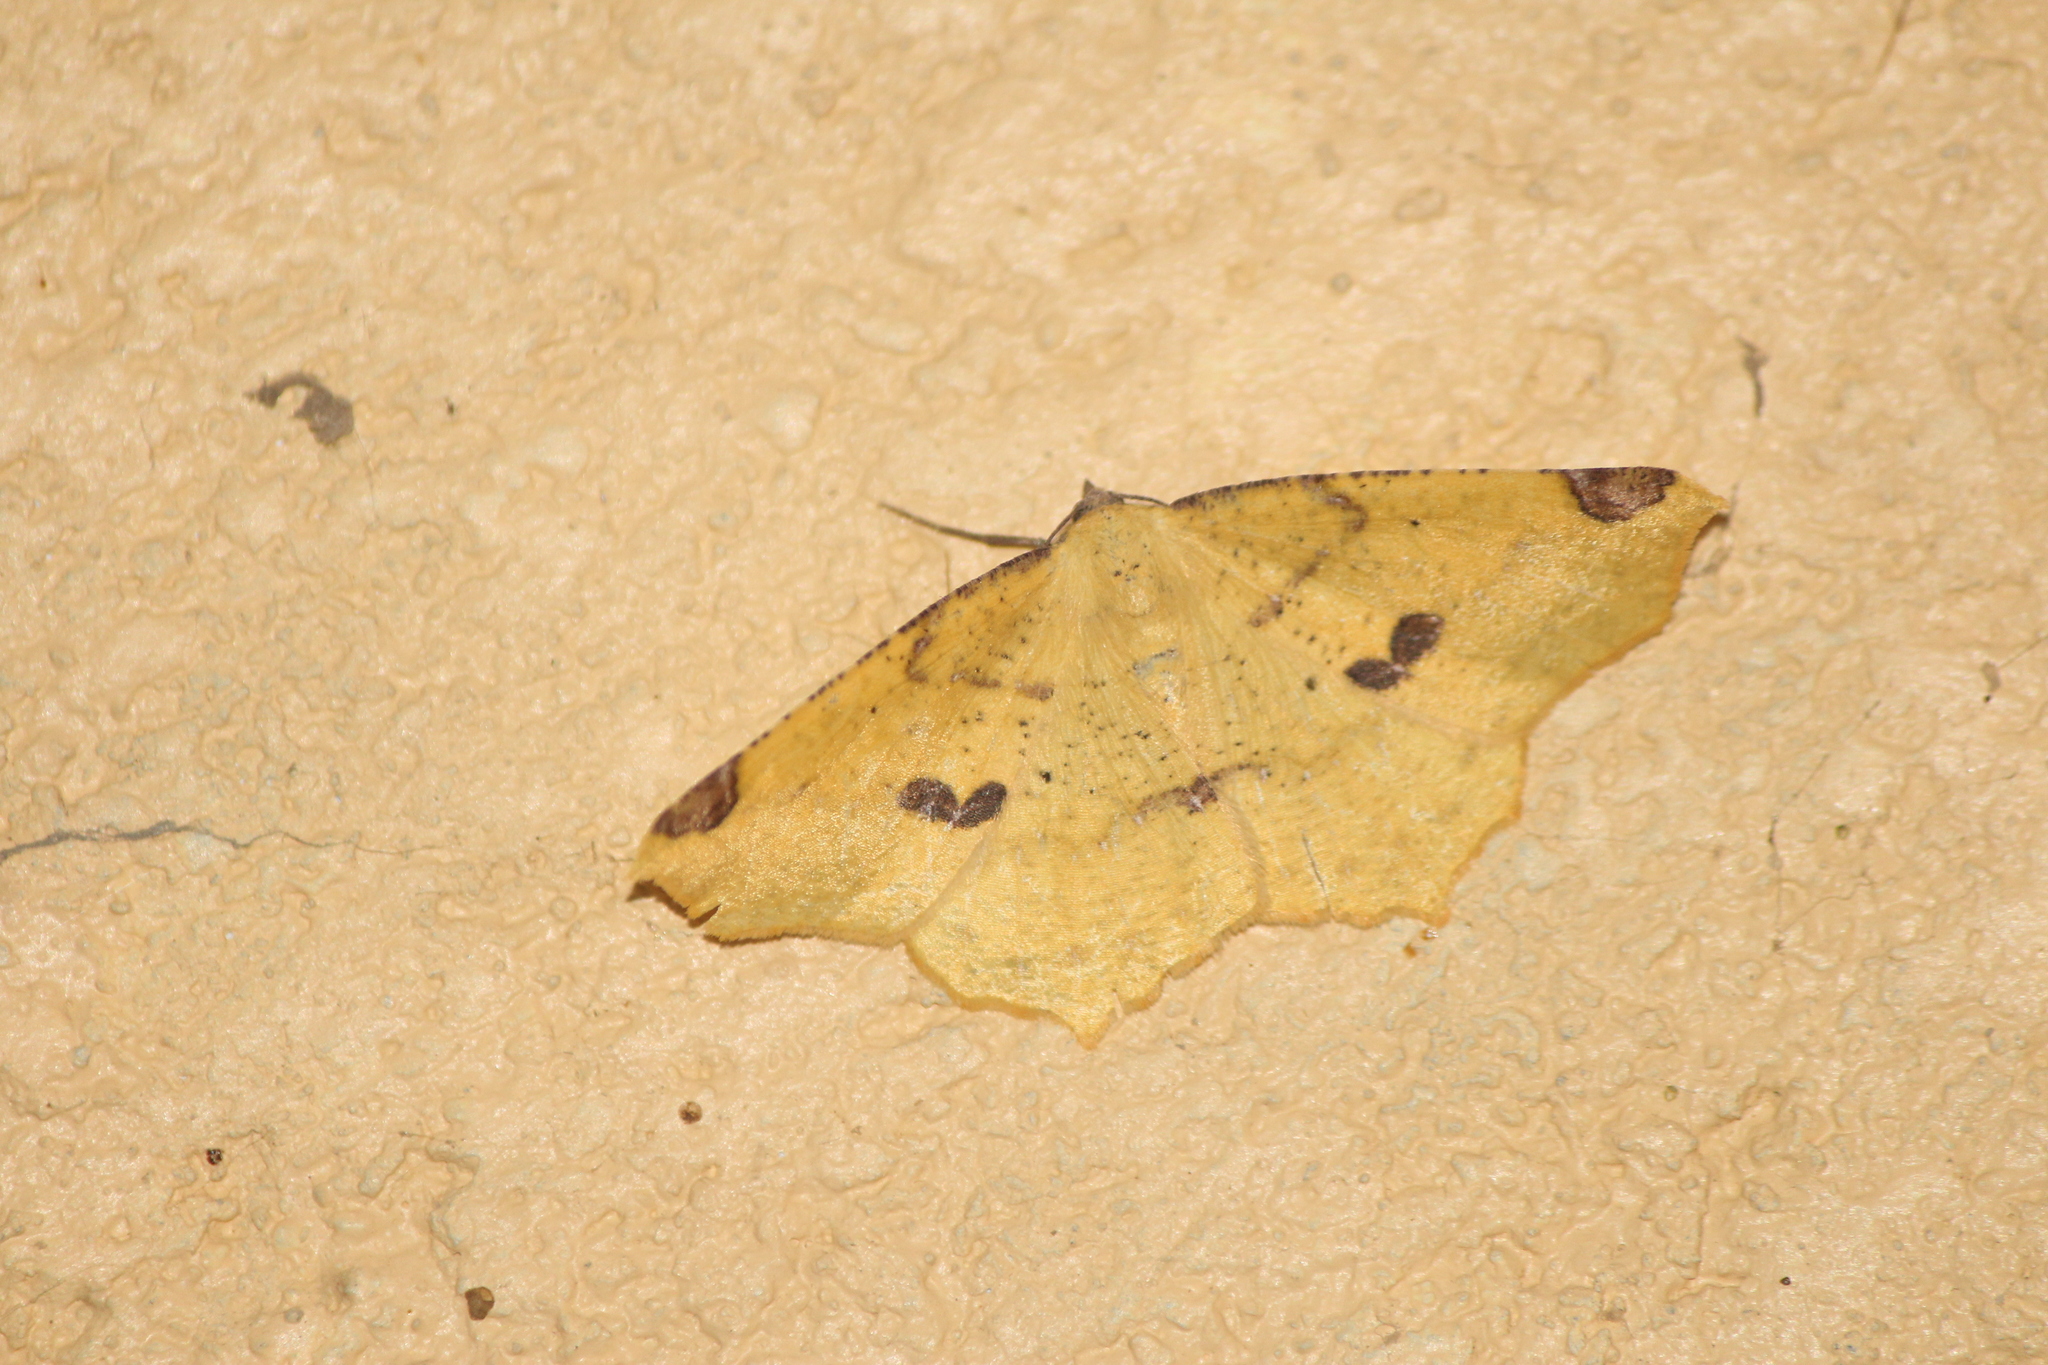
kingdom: Animalia
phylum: Arthropoda
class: Insecta
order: Lepidoptera
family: Geometridae
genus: Antepione
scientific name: Antepione thisoaria
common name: Variable antipione
